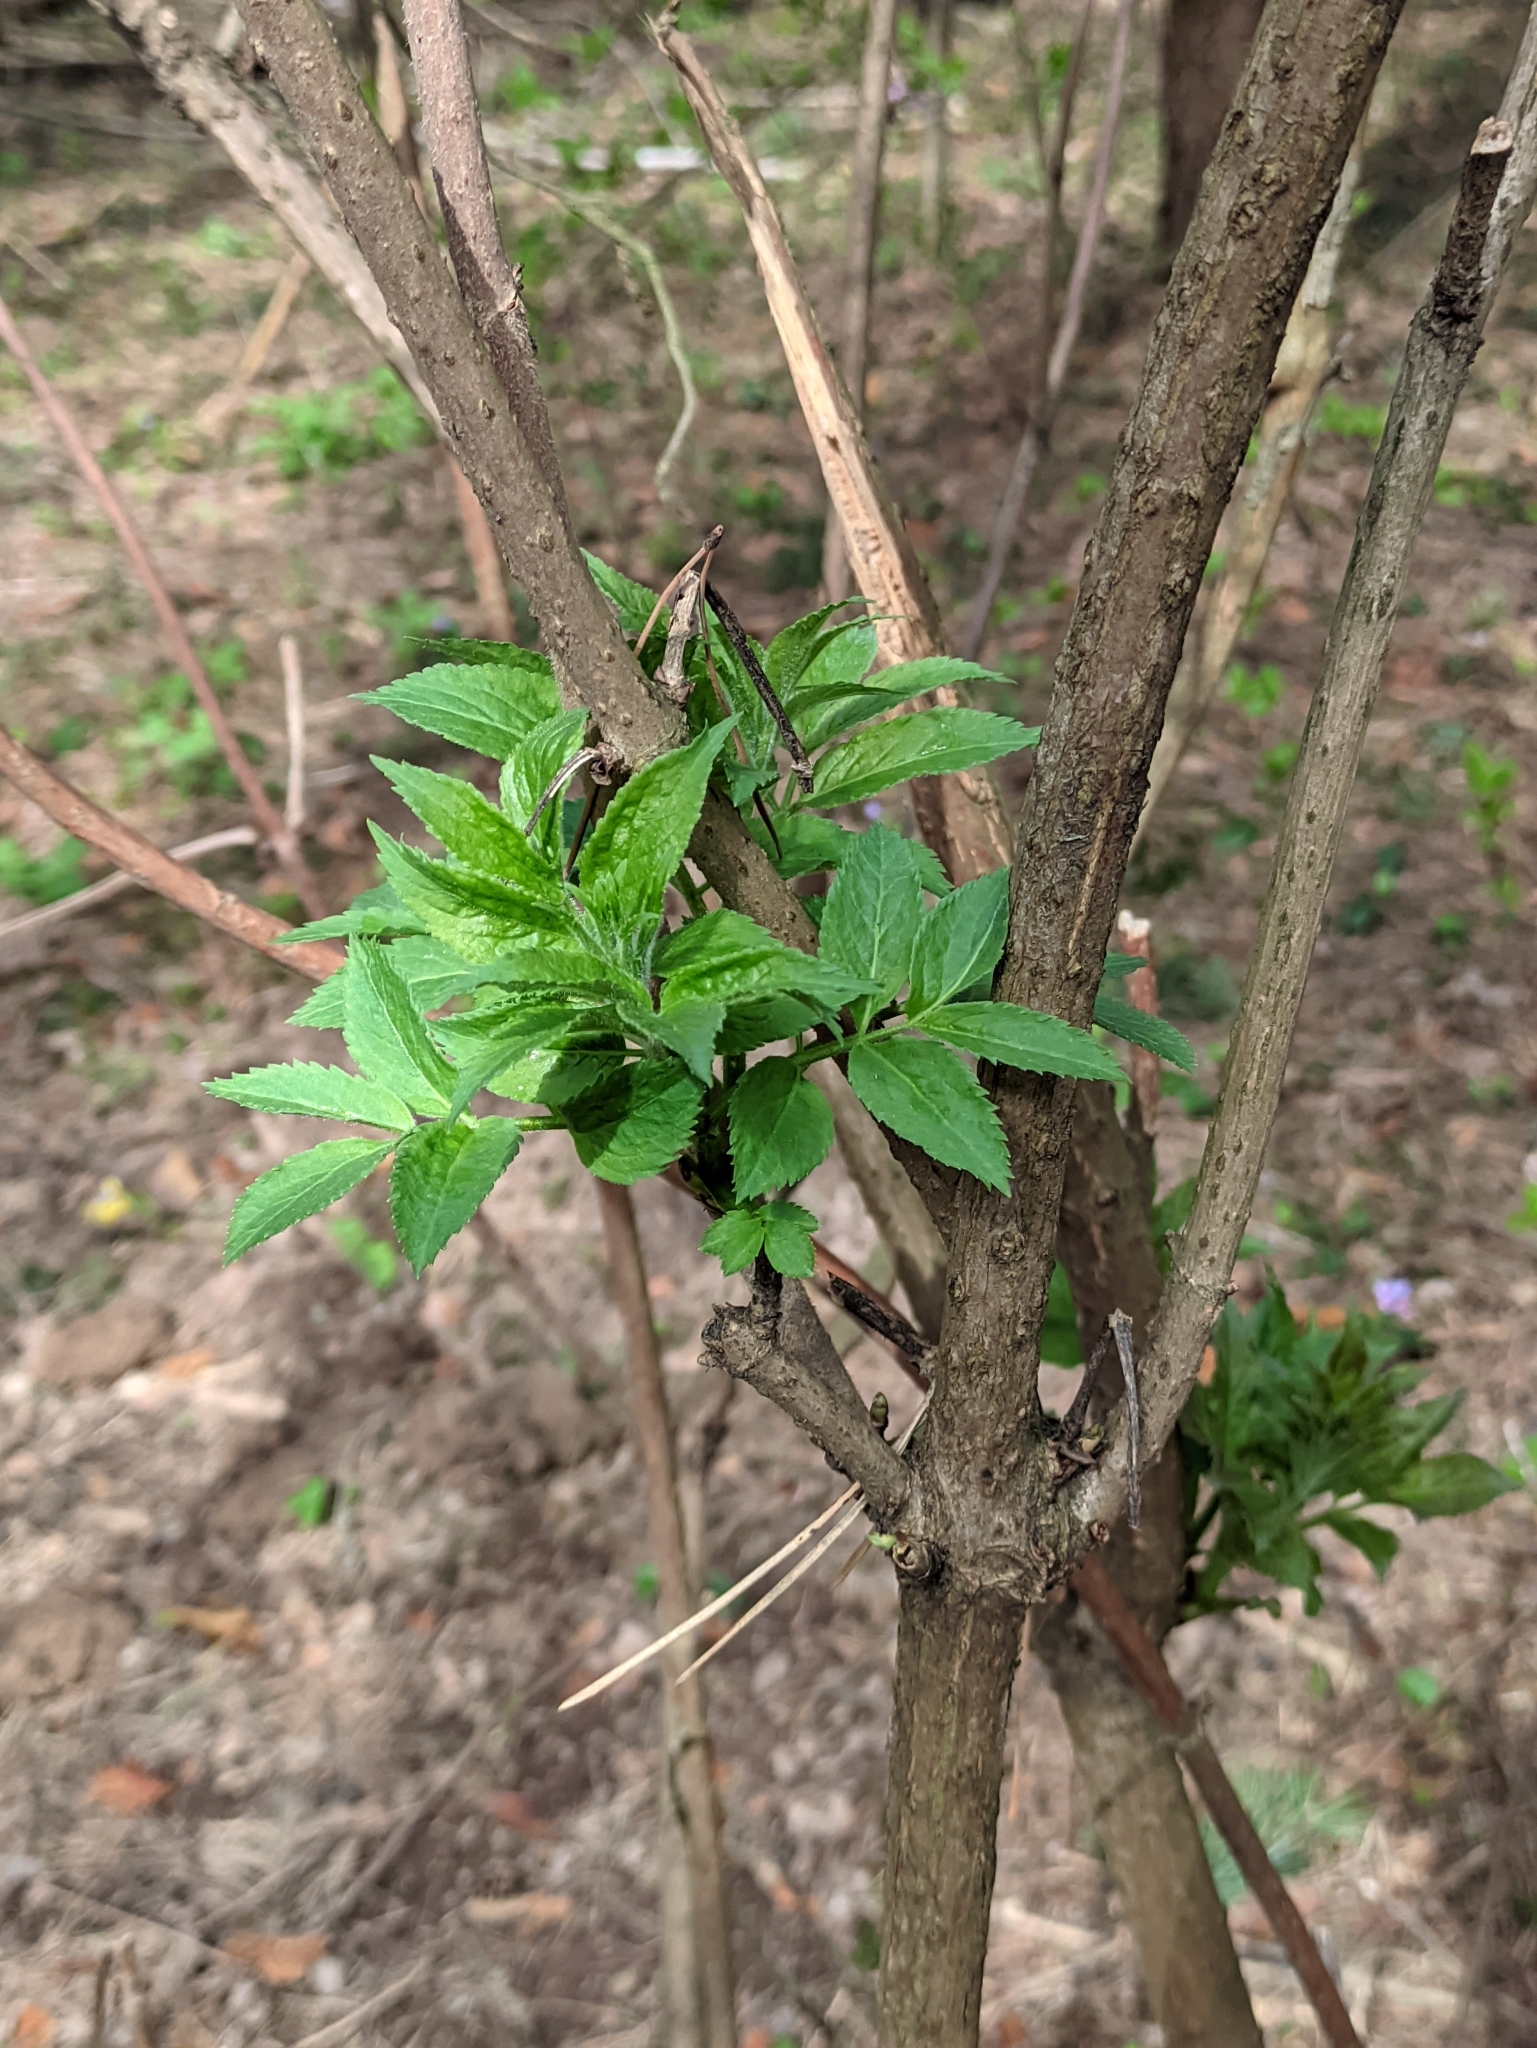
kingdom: Plantae
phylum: Tracheophyta
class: Magnoliopsida
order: Dipsacales
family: Viburnaceae
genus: Sambucus
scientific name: Sambucus racemosa
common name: Red-berried elder
